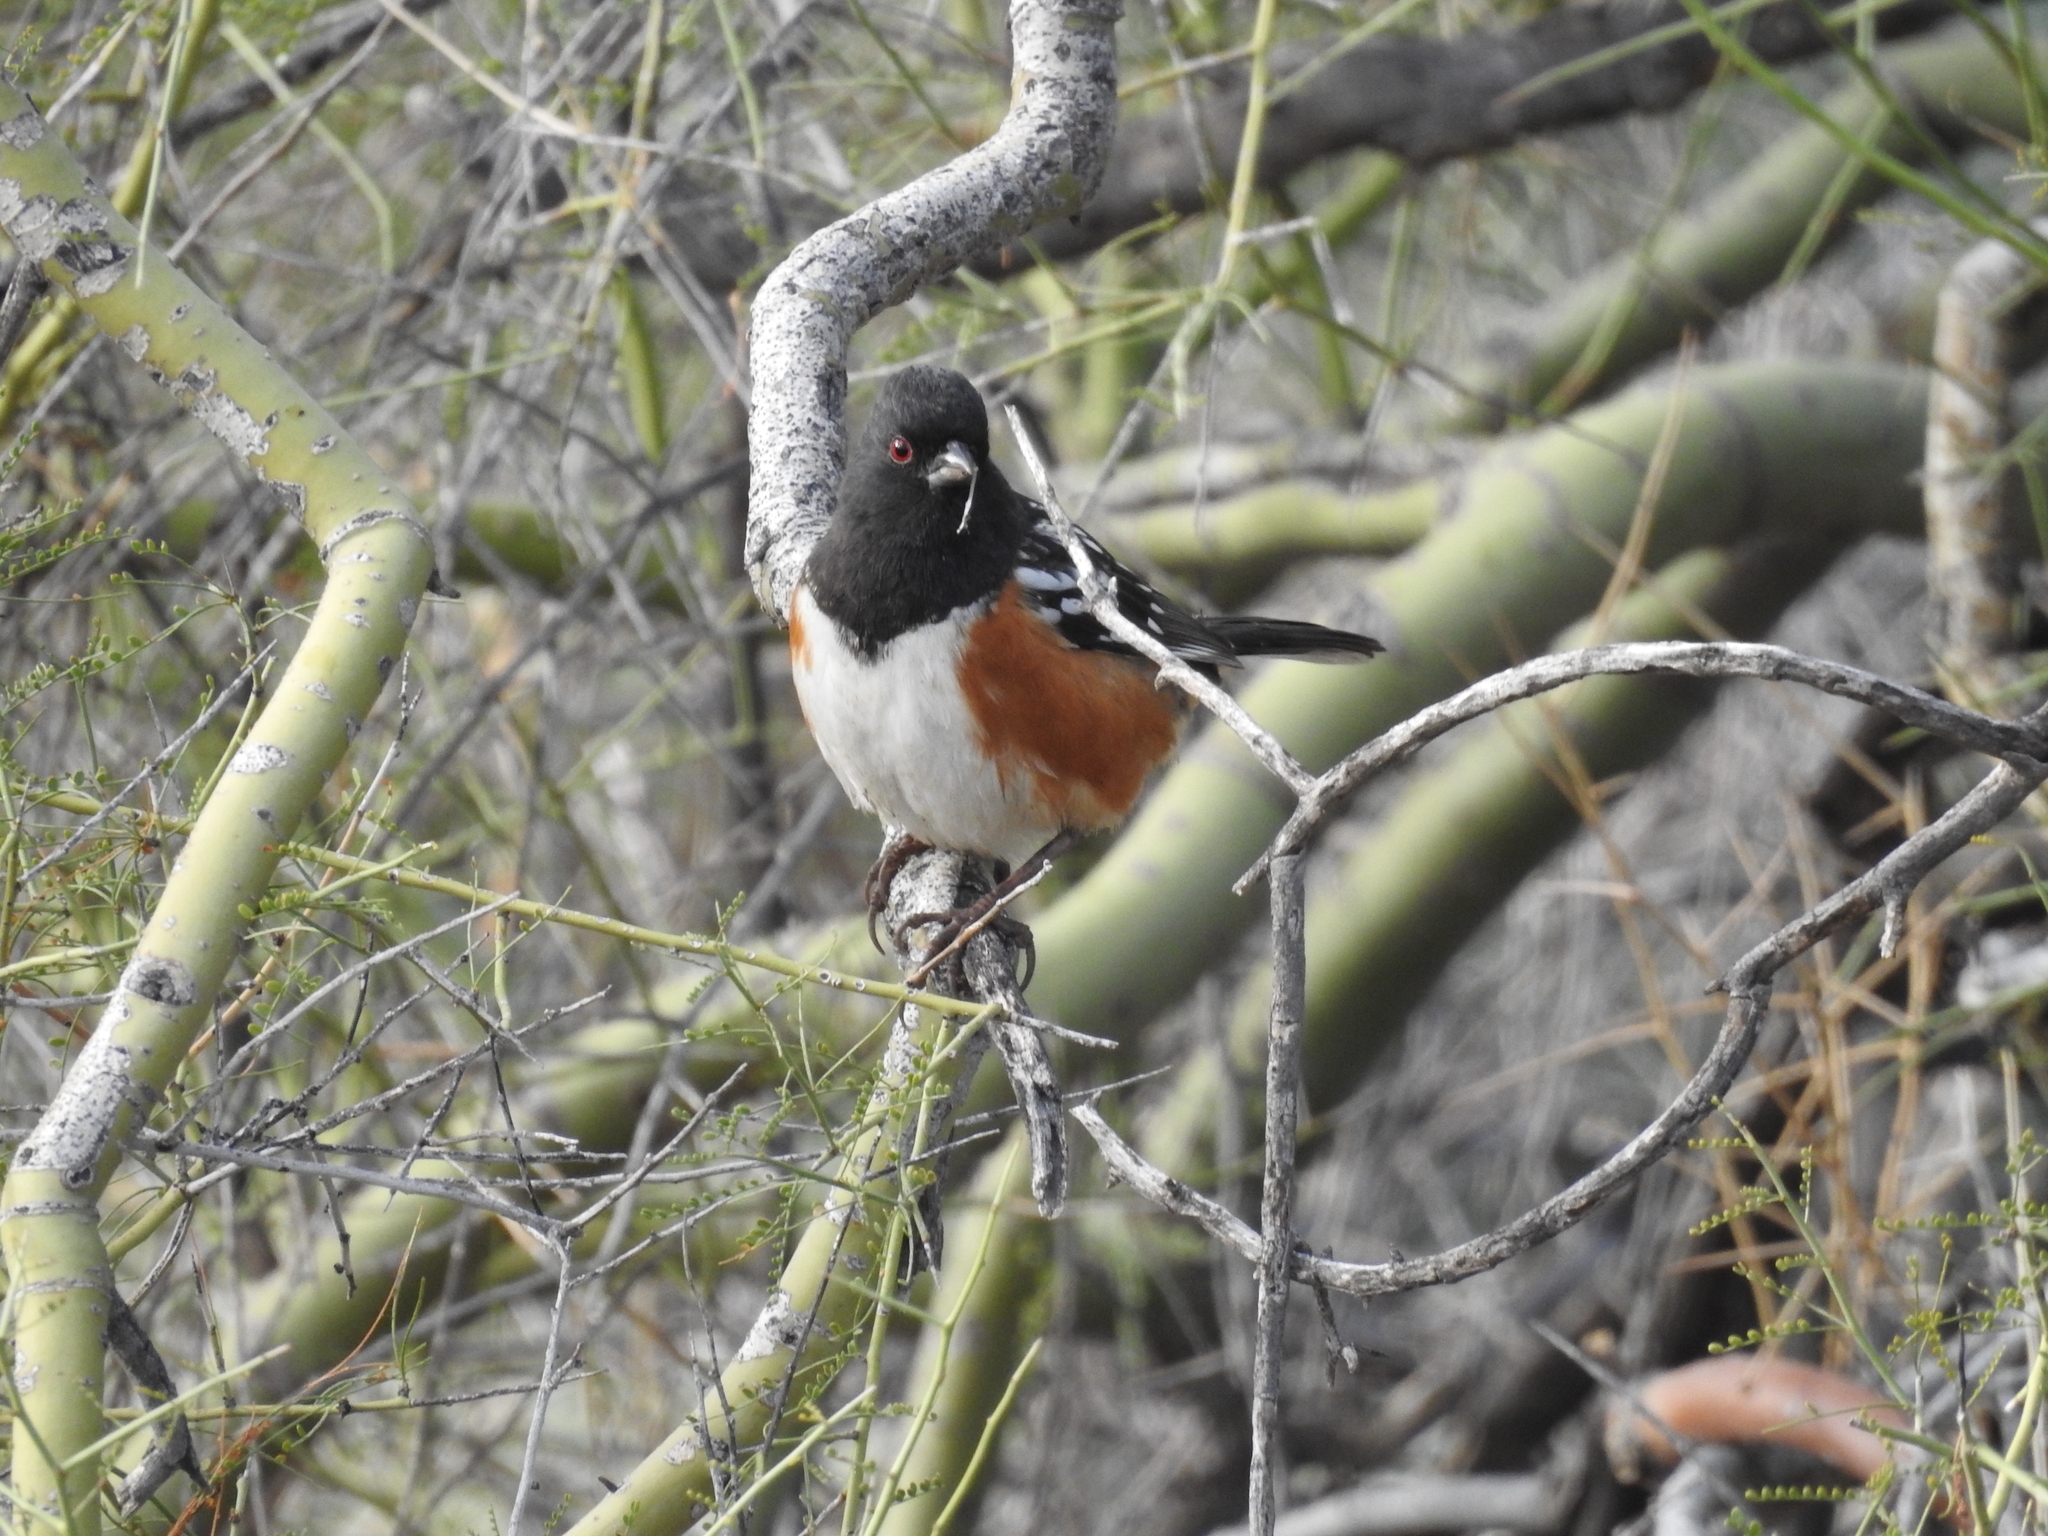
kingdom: Animalia
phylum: Chordata
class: Aves
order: Passeriformes
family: Passerellidae
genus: Pipilo
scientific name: Pipilo maculatus
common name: Spotted towhee
